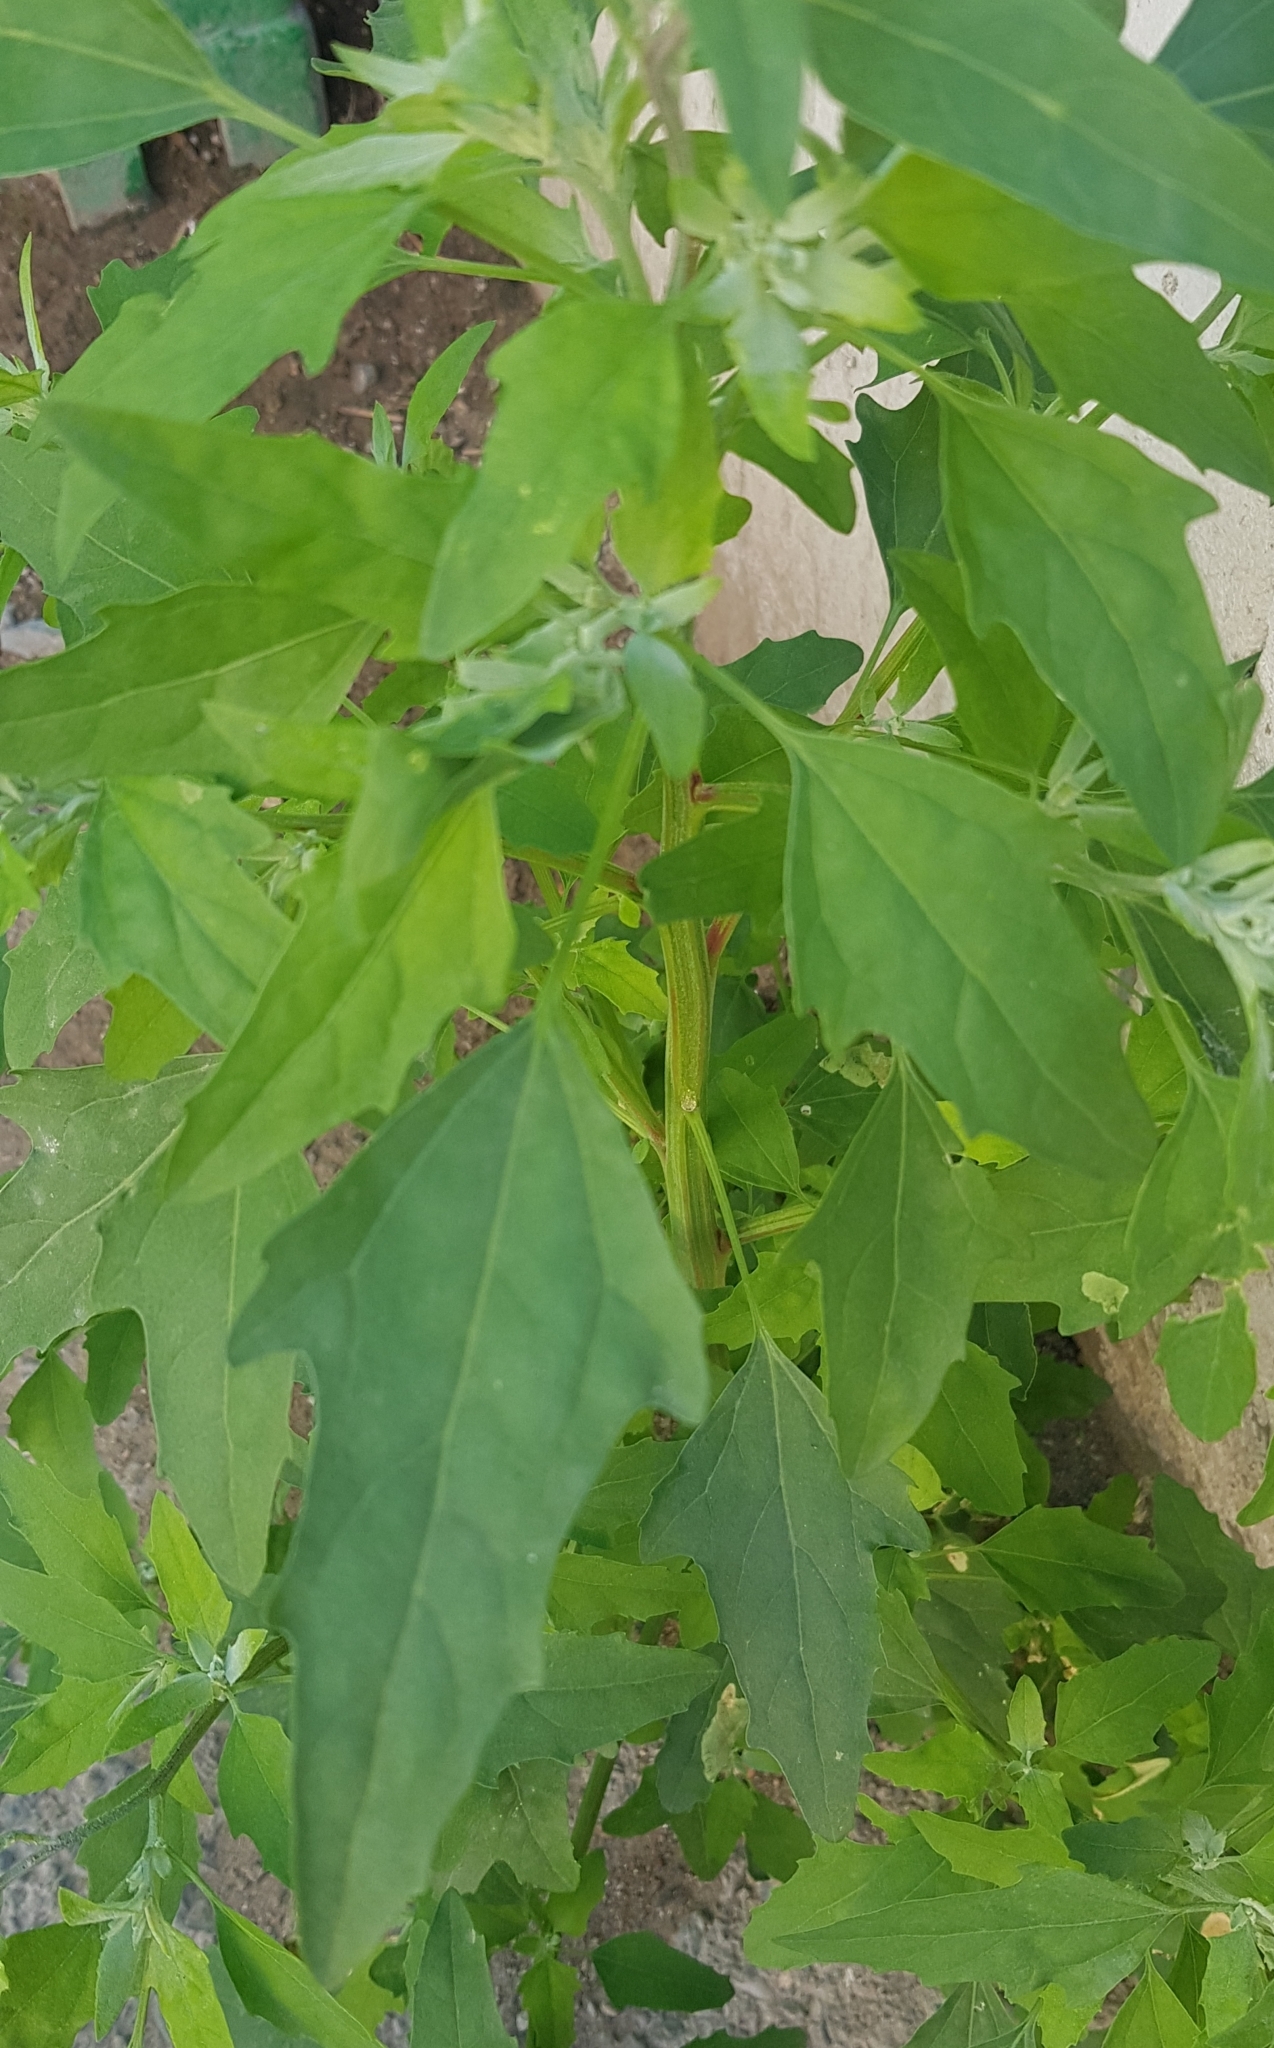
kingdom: Plantae
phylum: Tracheophyta
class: Magnoliopsida
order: Caryophyllales
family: Amaranthaceae
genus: Chenopodium
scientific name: Chenopodium album
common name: Fat-hen
